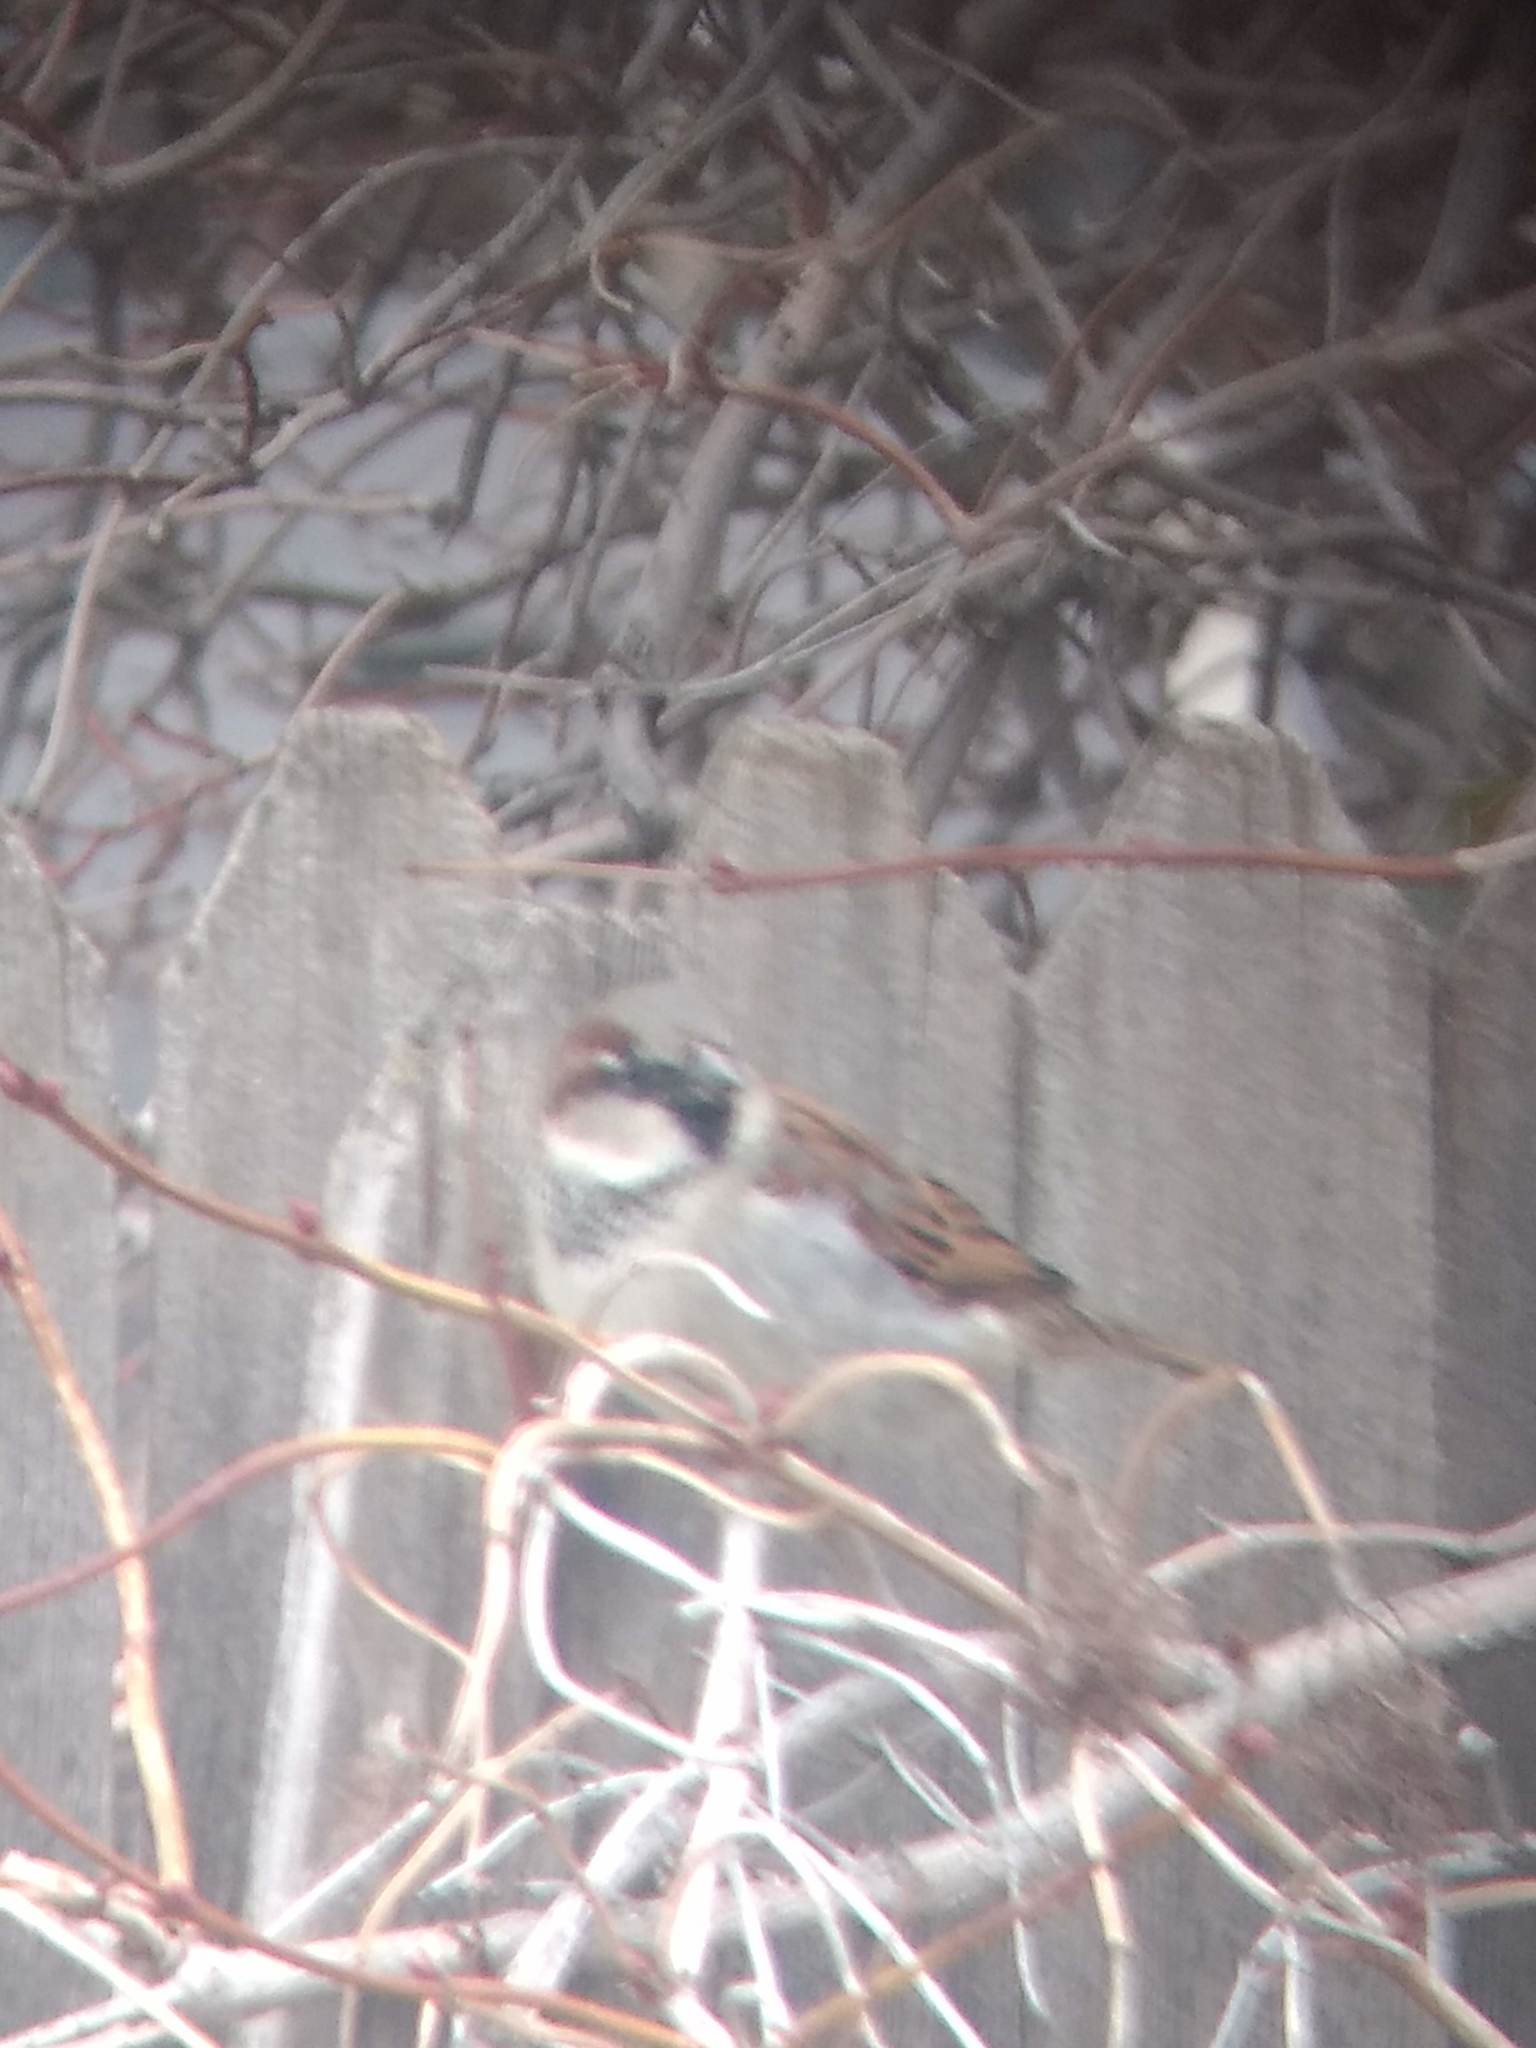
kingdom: Animalia
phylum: Chordata
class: Aves
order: Passeriformes
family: Passeridae
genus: Passer
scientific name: Passer domesticus
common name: House sparrow
